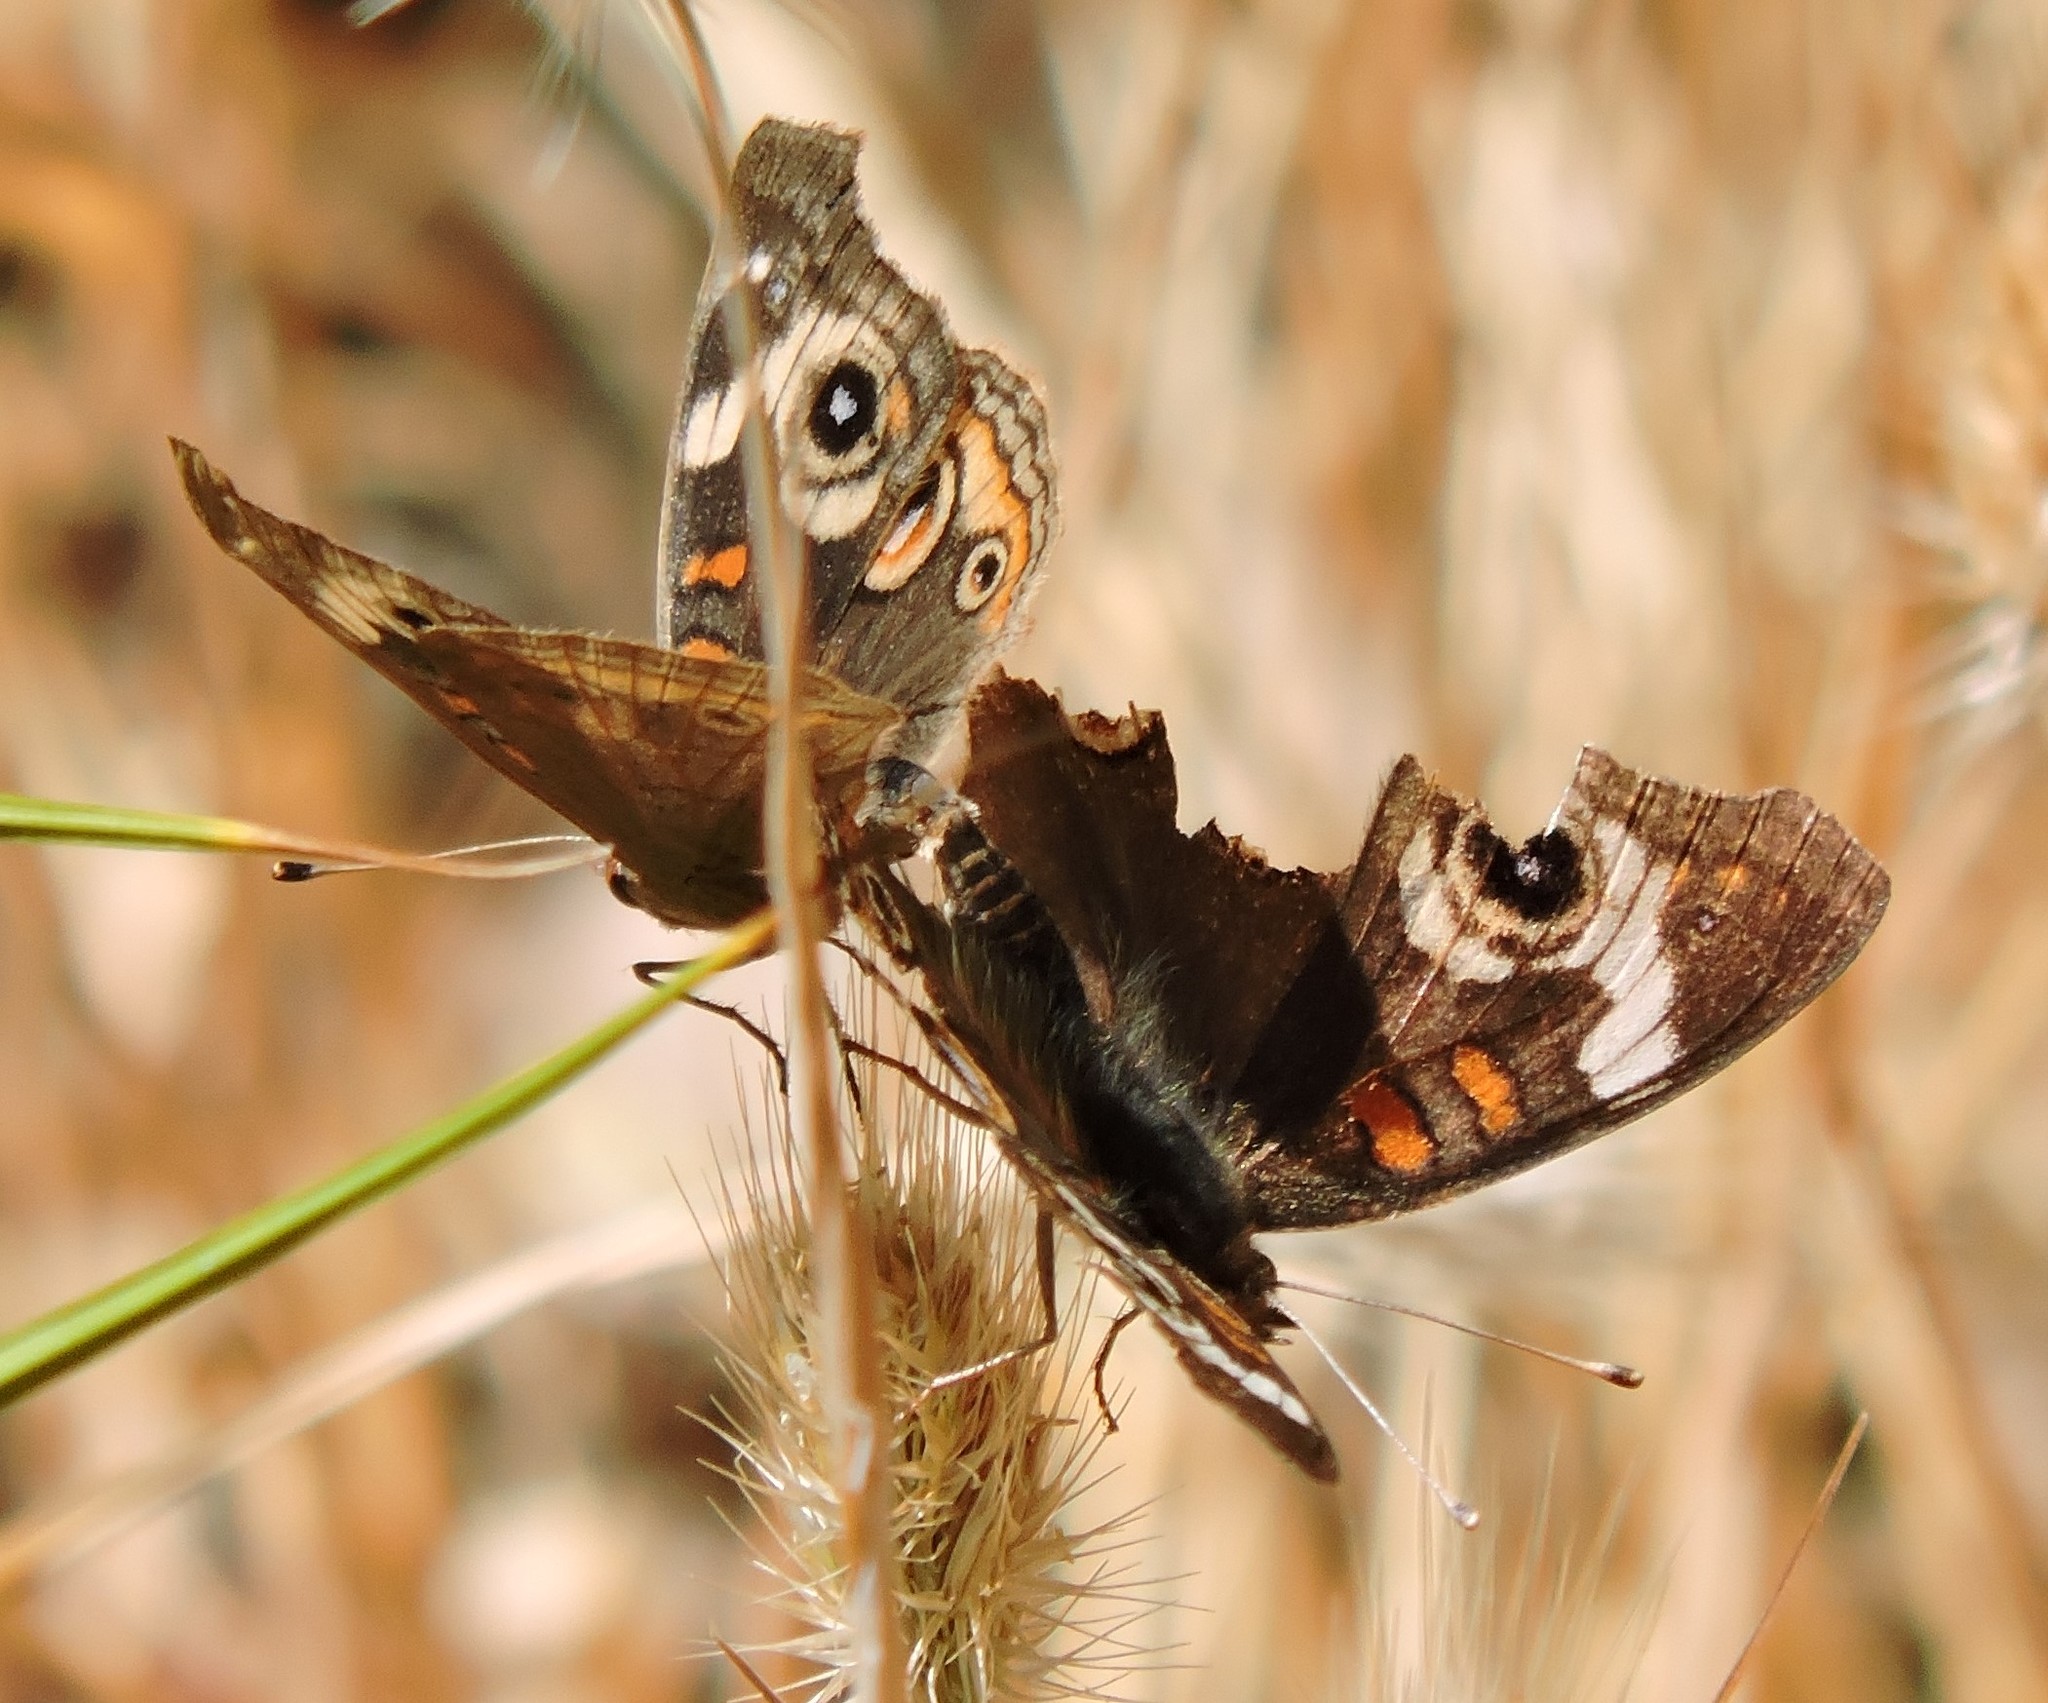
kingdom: Animalia
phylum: Arthropoda
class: Insecta
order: Lepidoptera
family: Nymphalidae
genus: Junonia
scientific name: Junonia grisea
